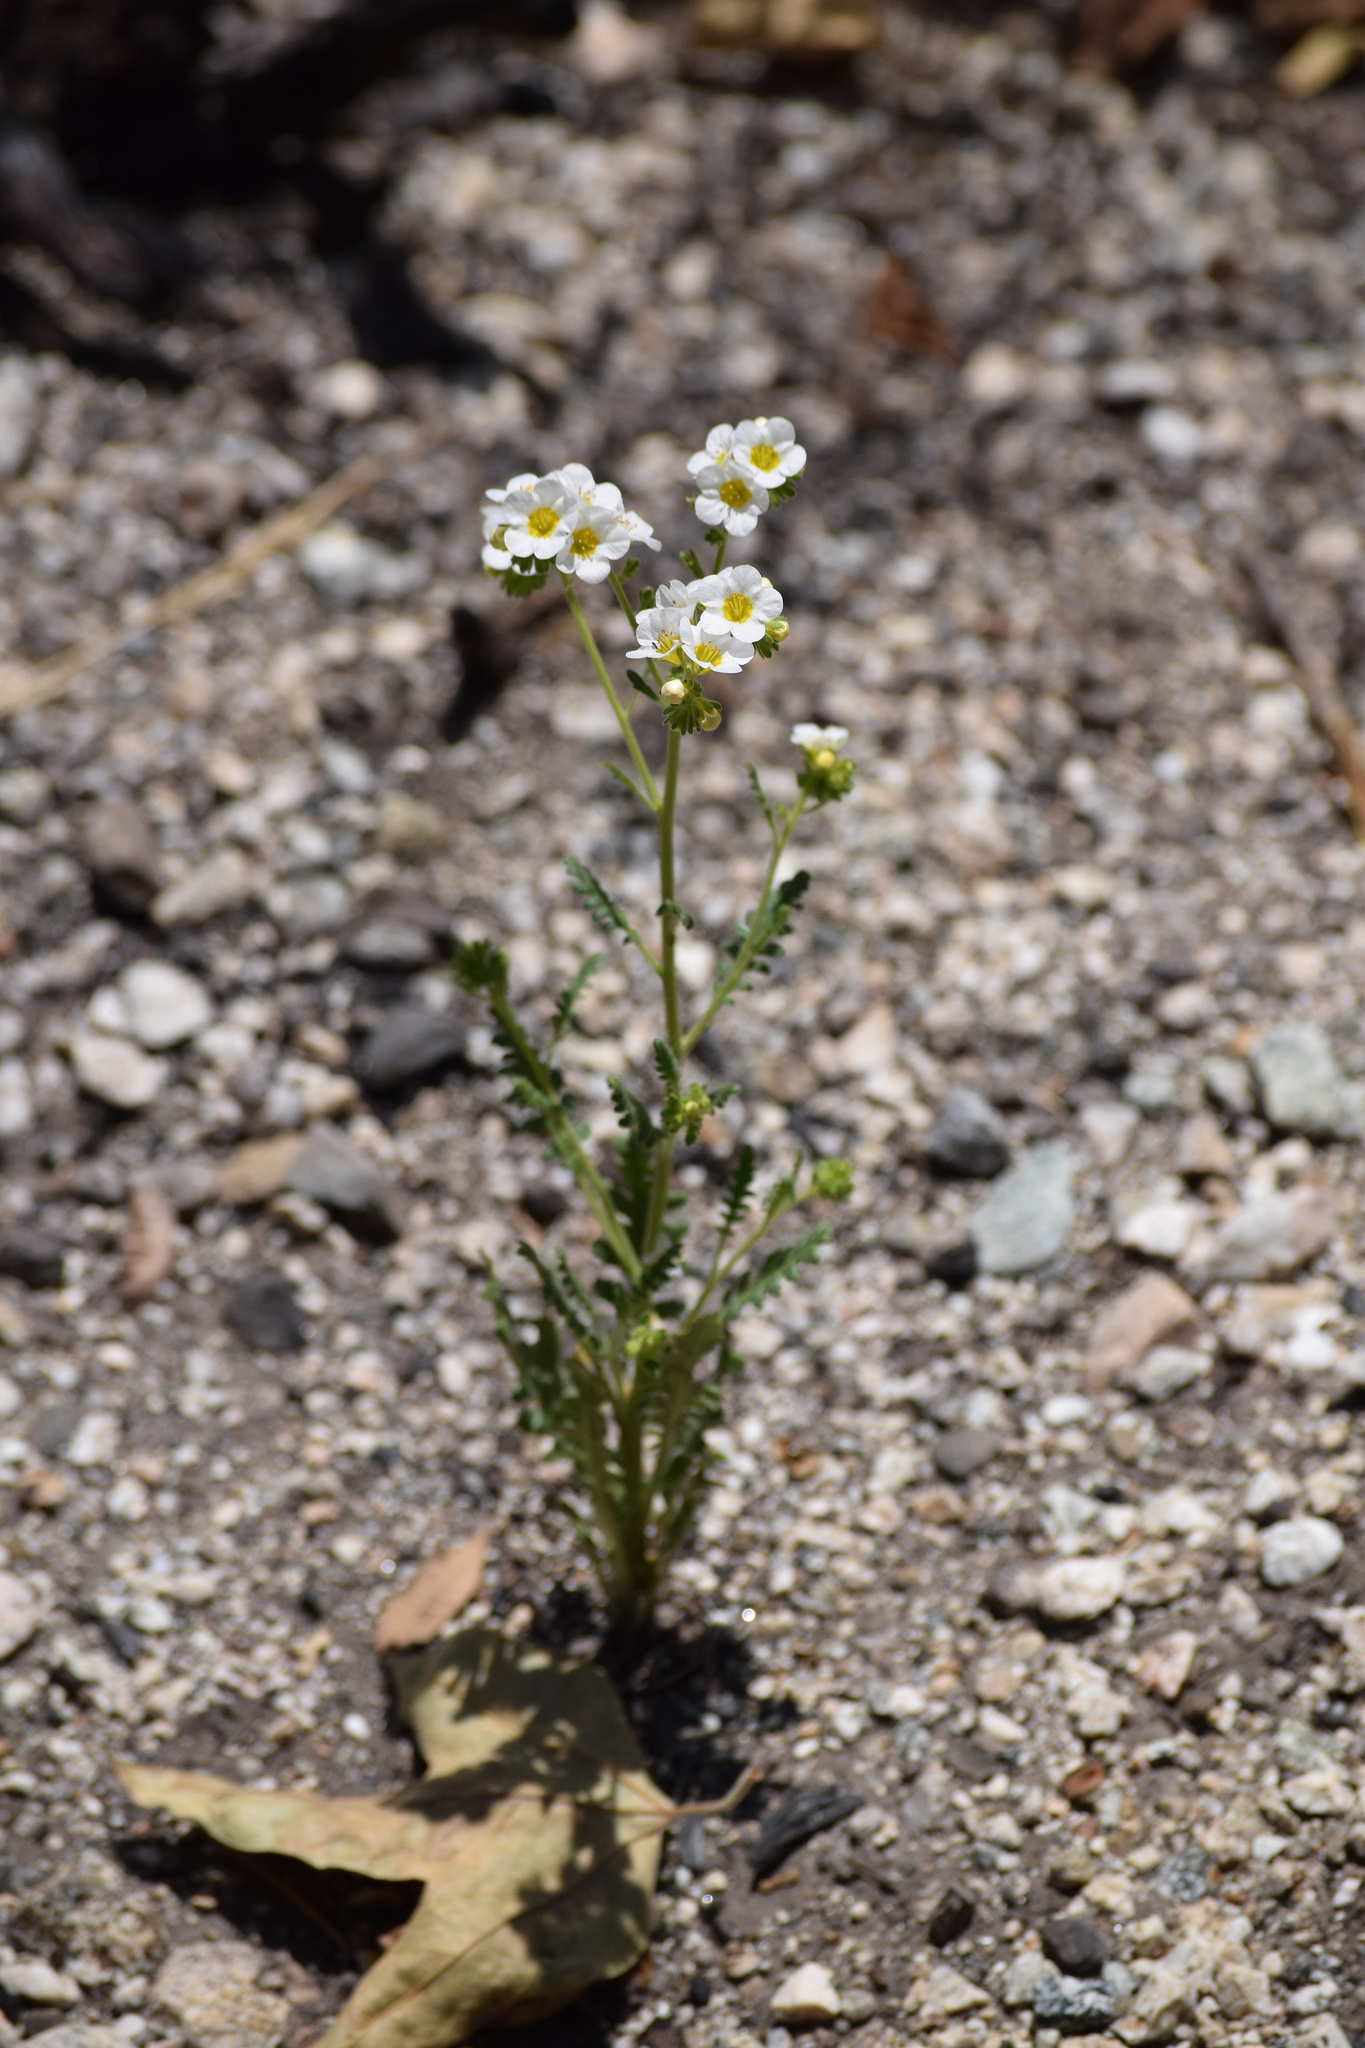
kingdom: Plantae
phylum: Tracheophyta
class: Magnoliopsida
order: Boraginales
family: Hydrophyllaceae
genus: Phacelia
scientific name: Phacelia brachyloba
